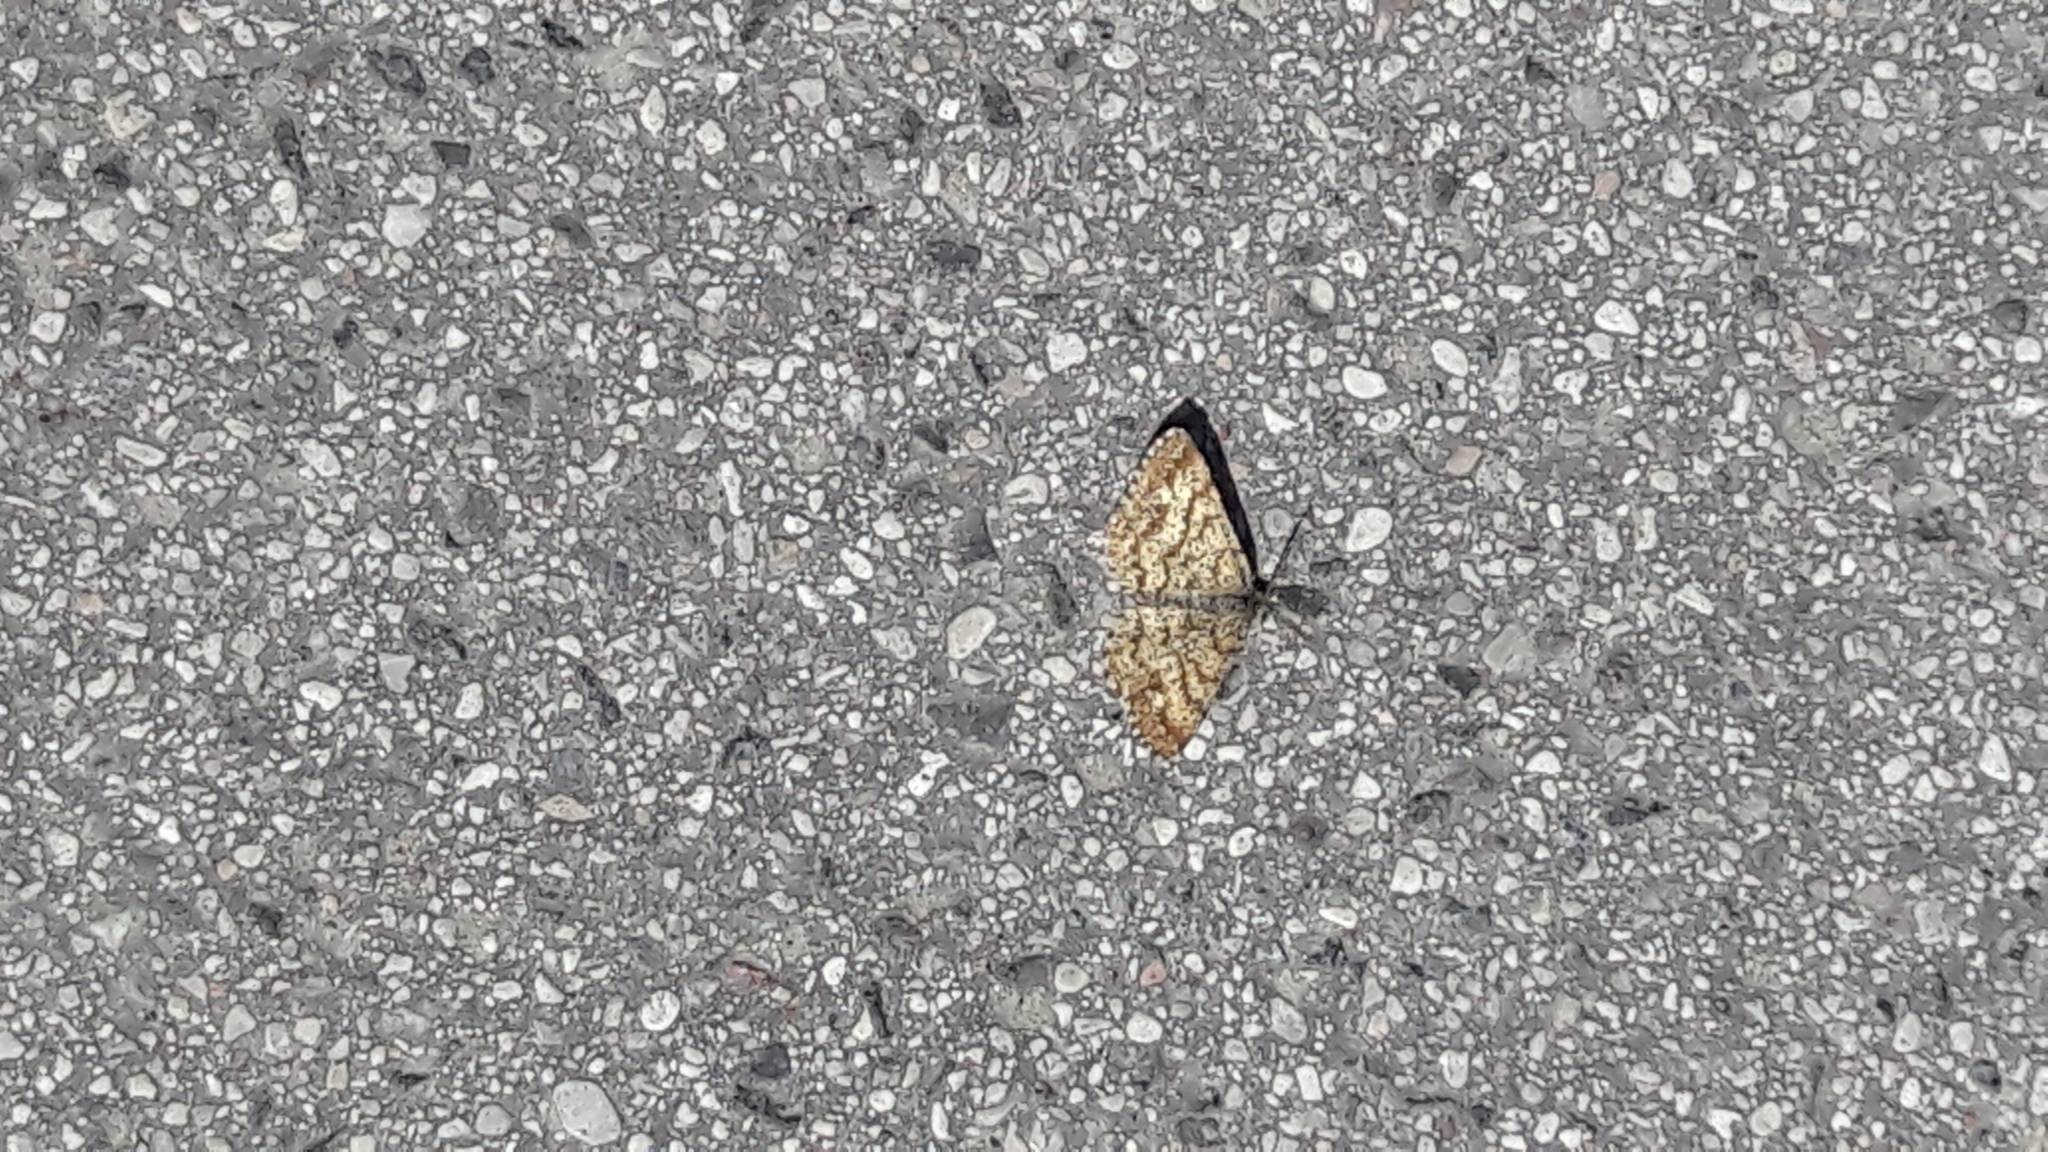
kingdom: Animalia
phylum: Arthropoda
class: Insecta
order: Lepidoptera
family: Geometridae
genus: Ematurga
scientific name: Ematurga atomaria
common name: Common heath
